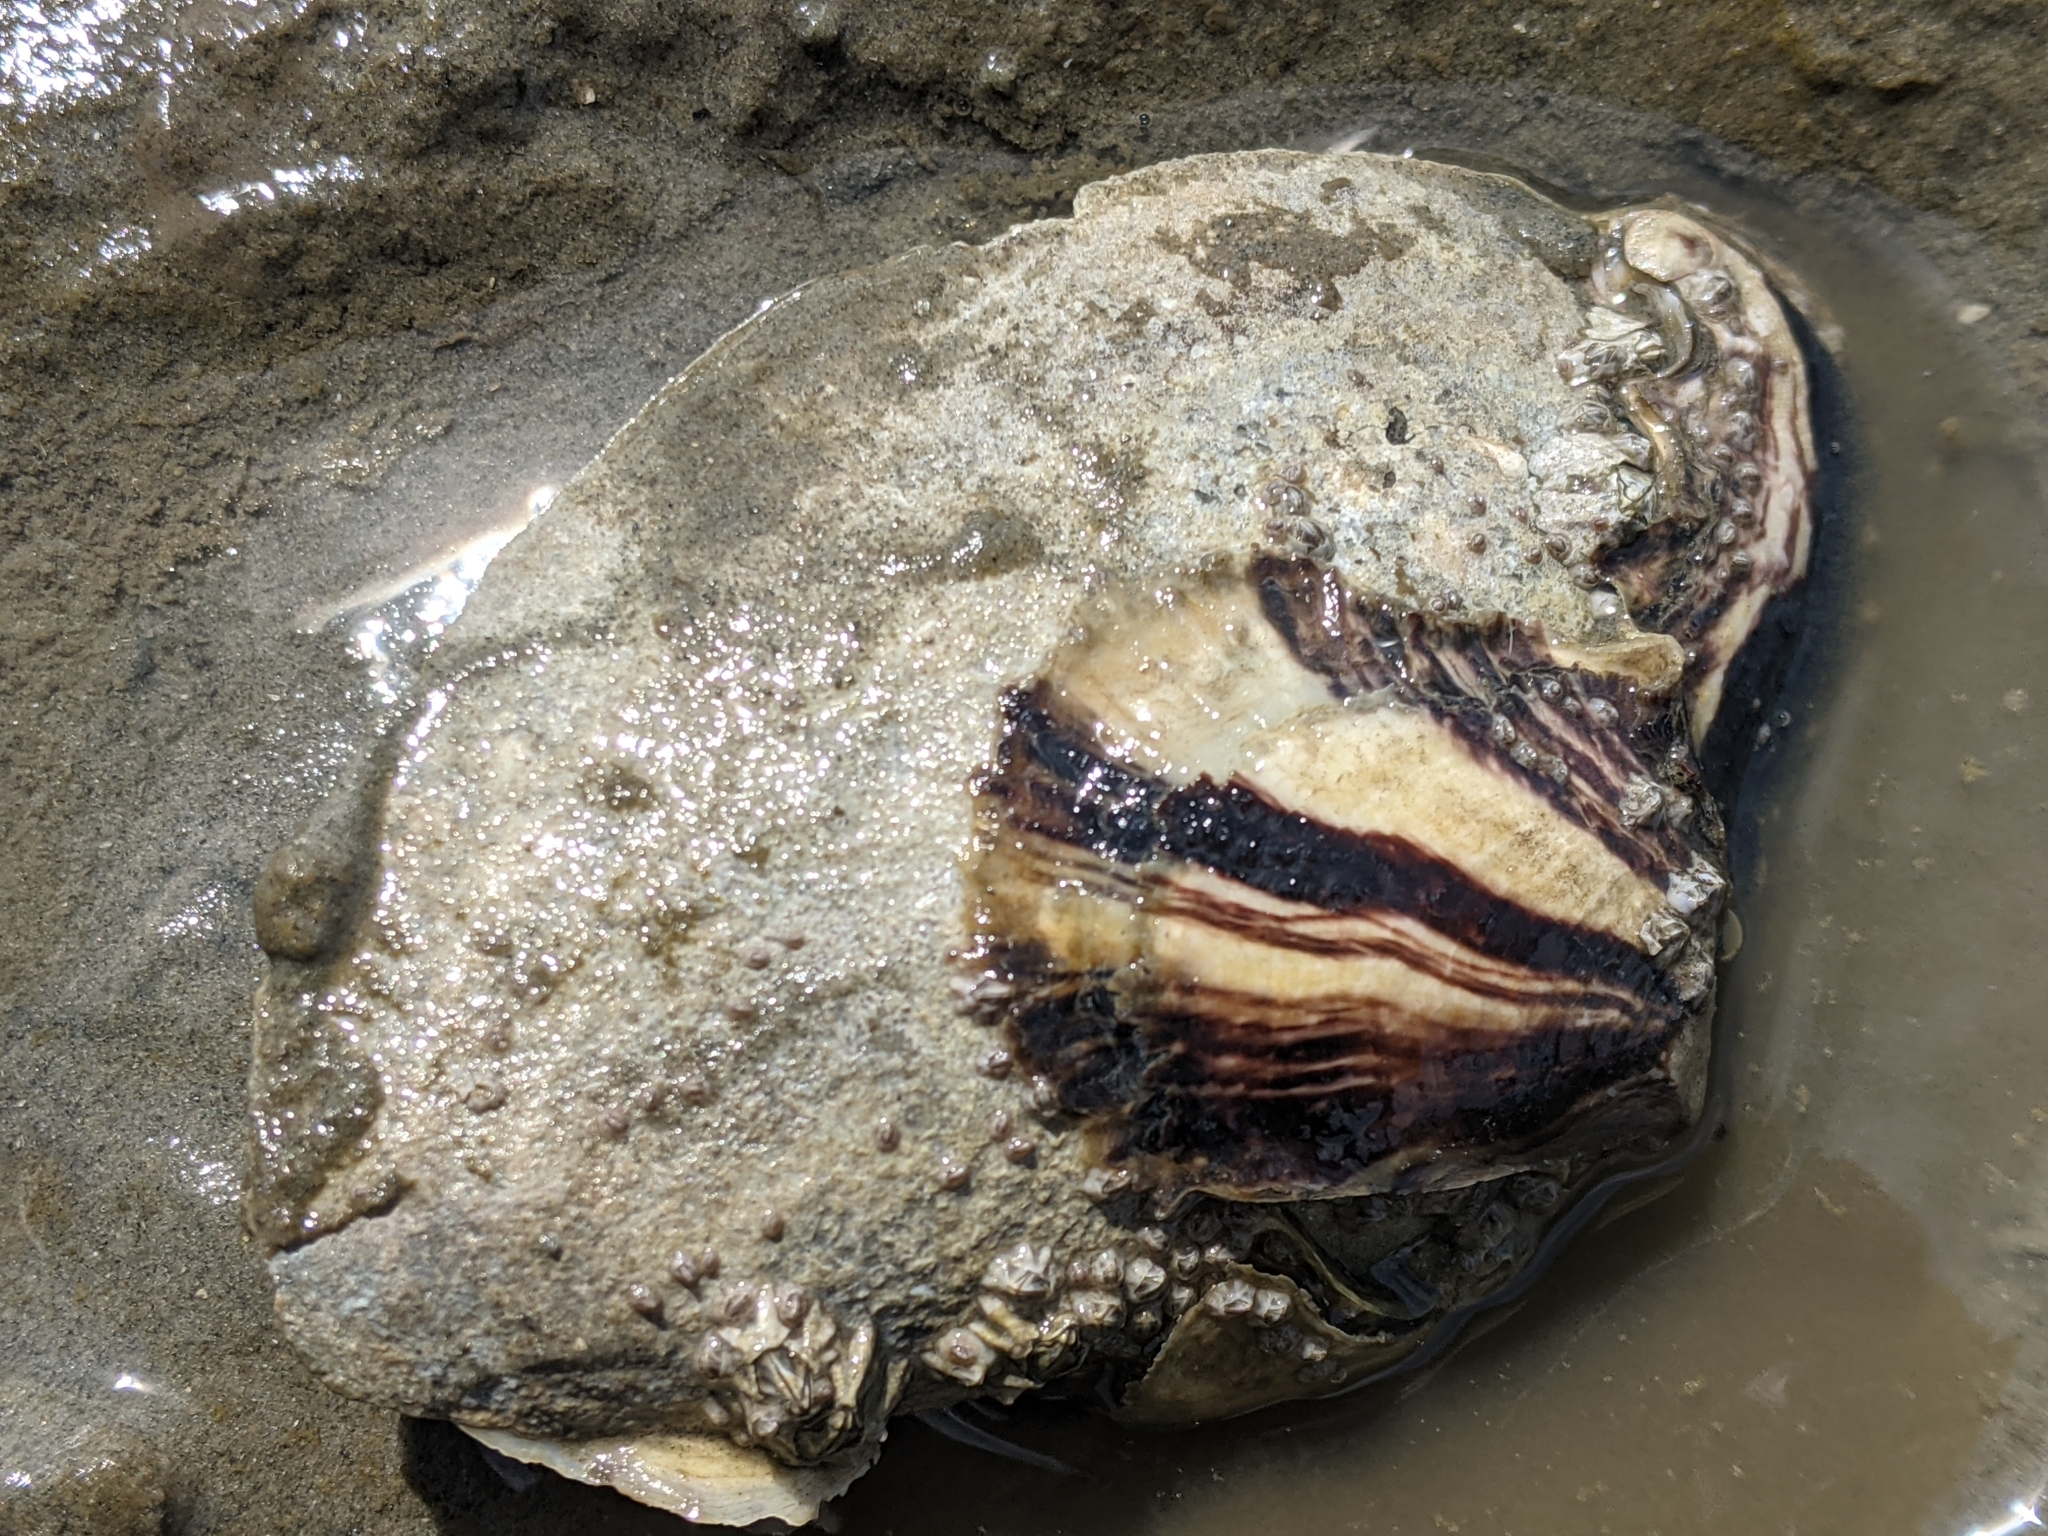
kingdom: Animalia
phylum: Mollusca
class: Bivalvia
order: Ostreida
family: Ostreidae
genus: Magallana
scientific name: Magallana gigas
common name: Pacific oyster
